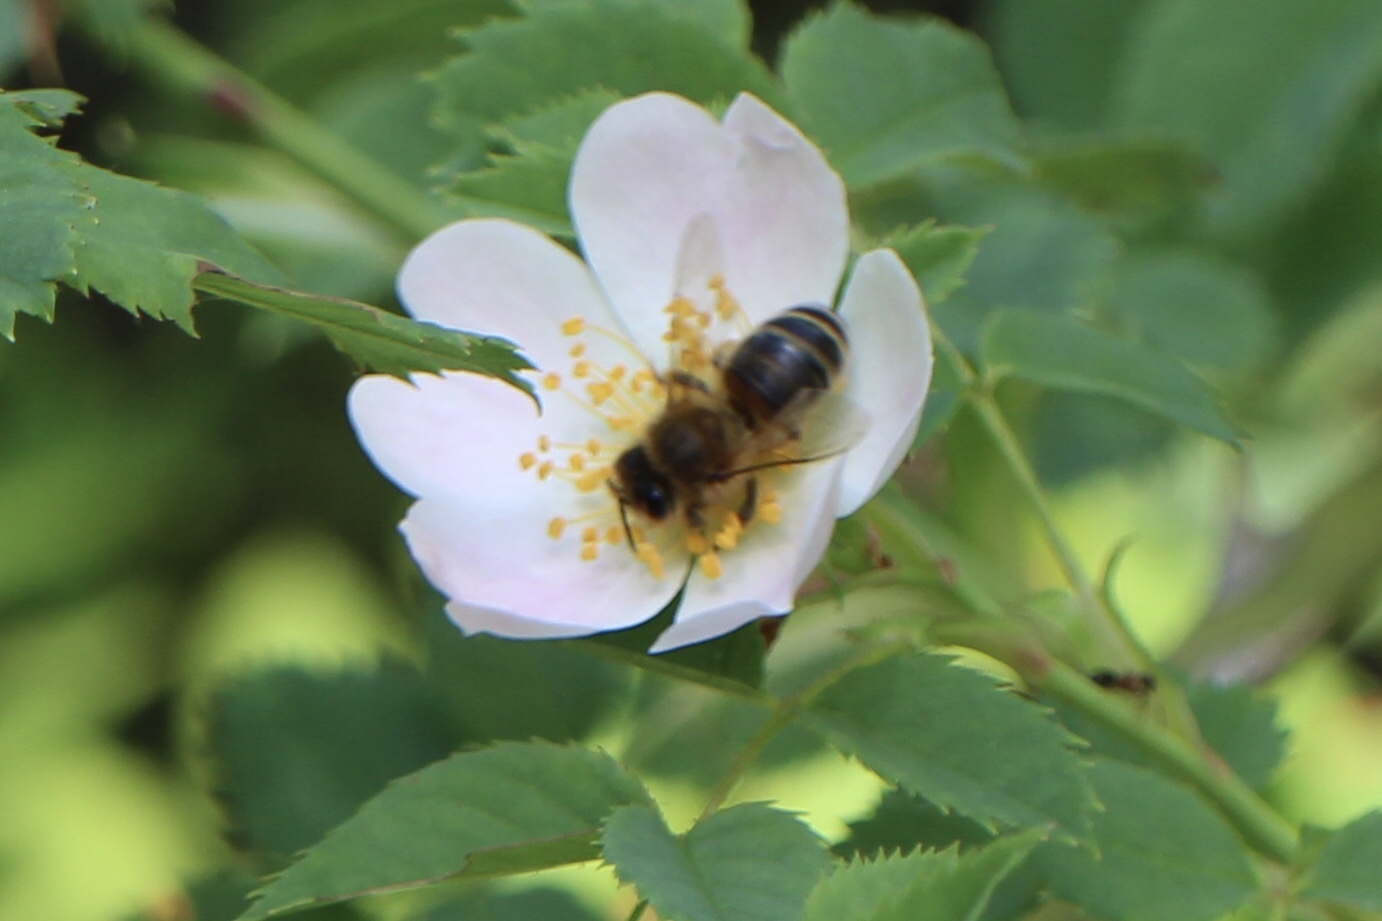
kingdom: Animalia
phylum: Arthropoda
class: Insecta
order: Hymenoptera
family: Apidae
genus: Apis
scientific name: Apis mellifera
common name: Honey bee
